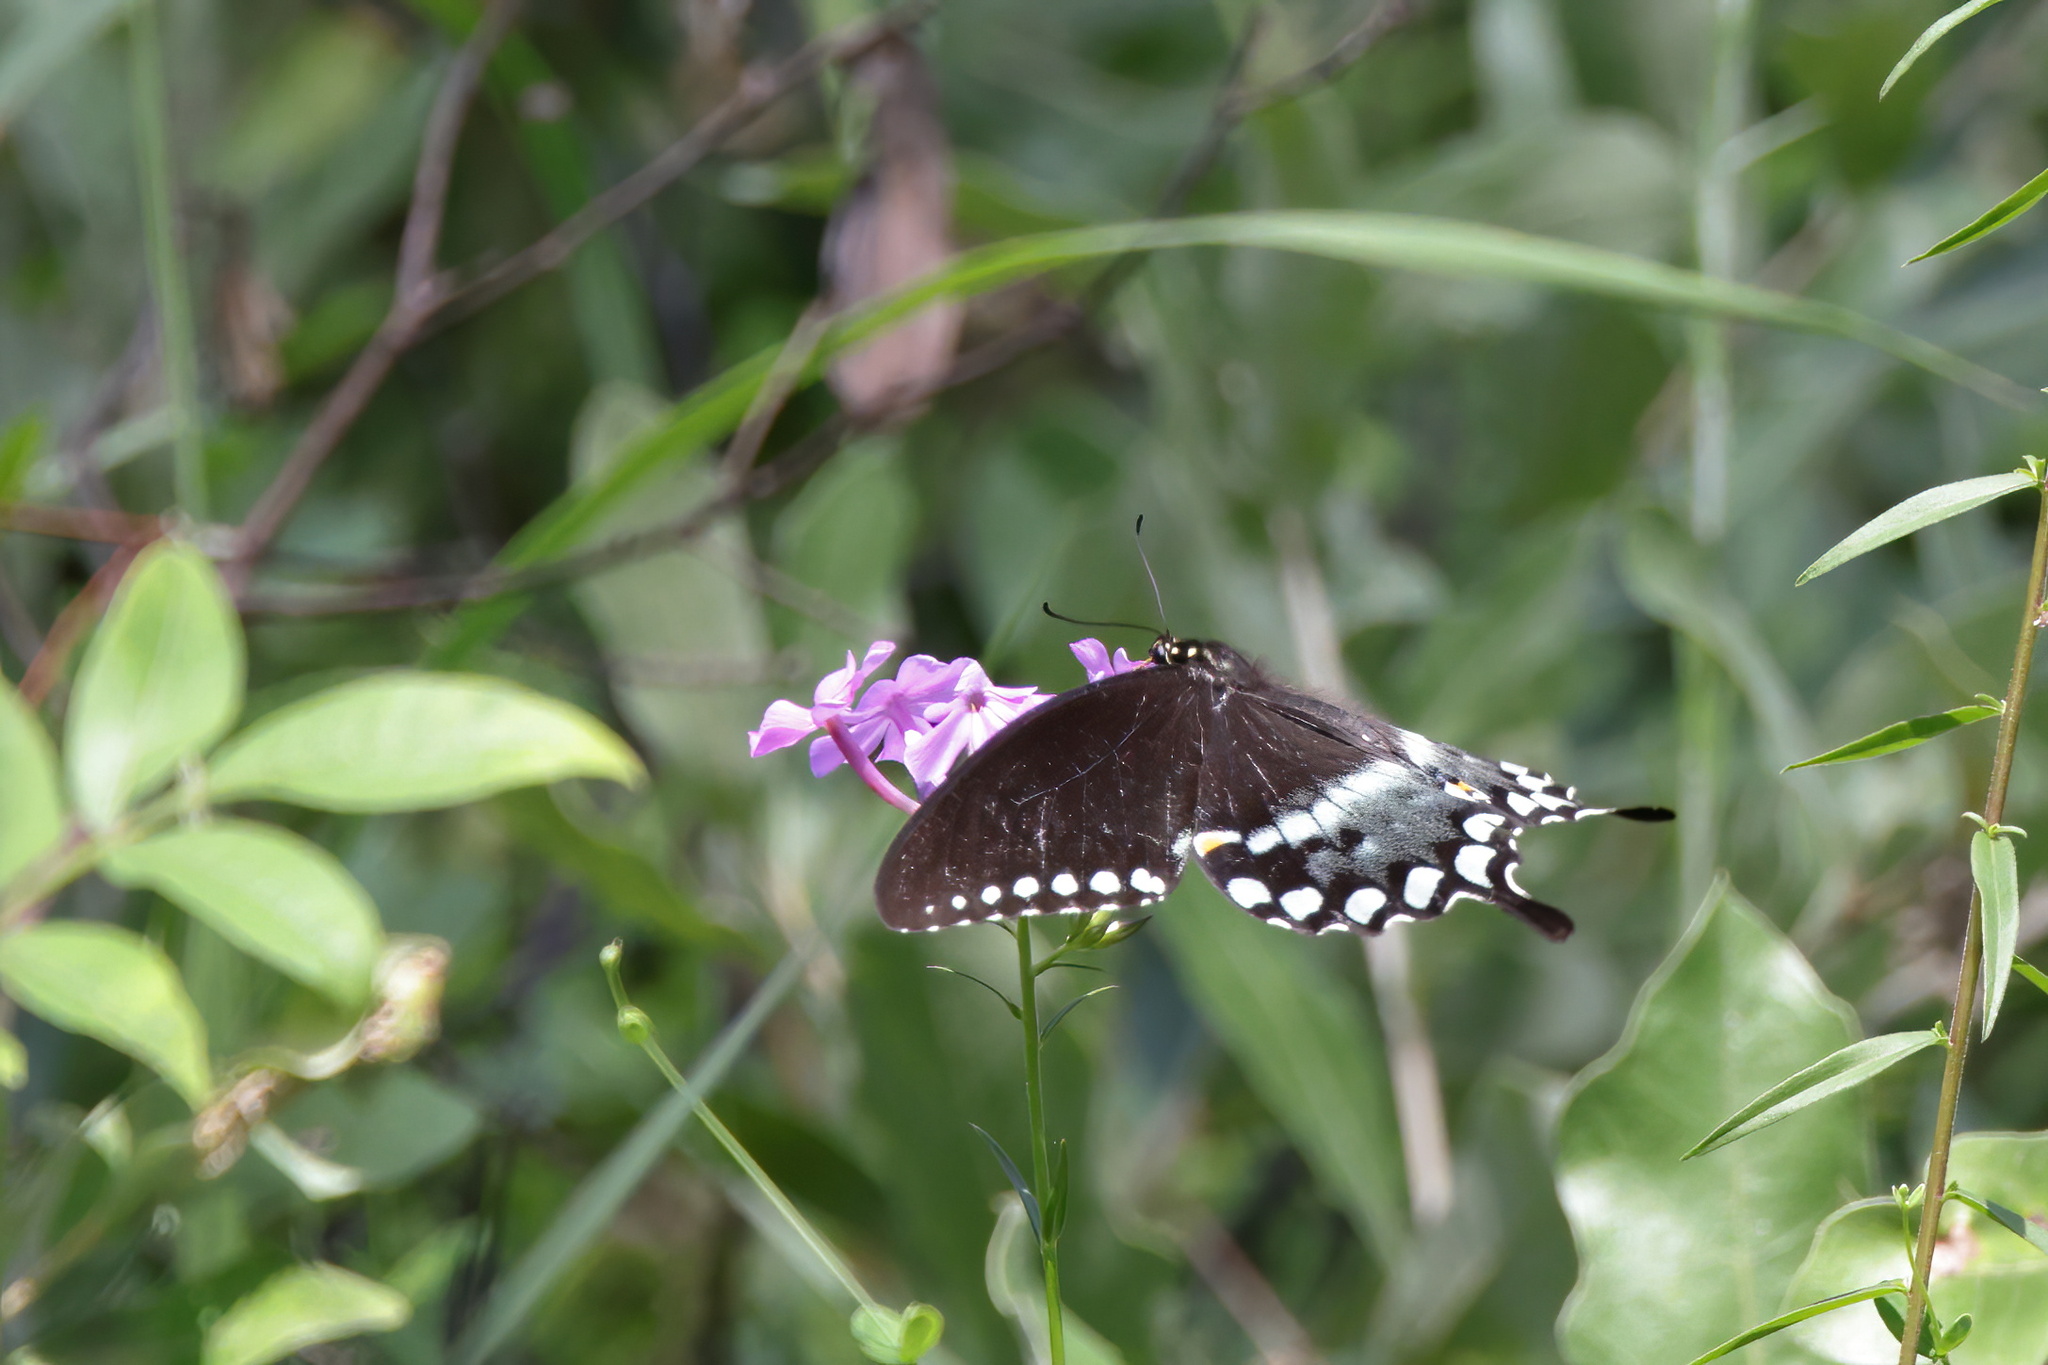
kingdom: Animalia
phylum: Arthropoda
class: Insecta
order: Lepidoptera
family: Papilionidae
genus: Papilio
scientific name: Papilio troilus
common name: Spicebush swallowtail
